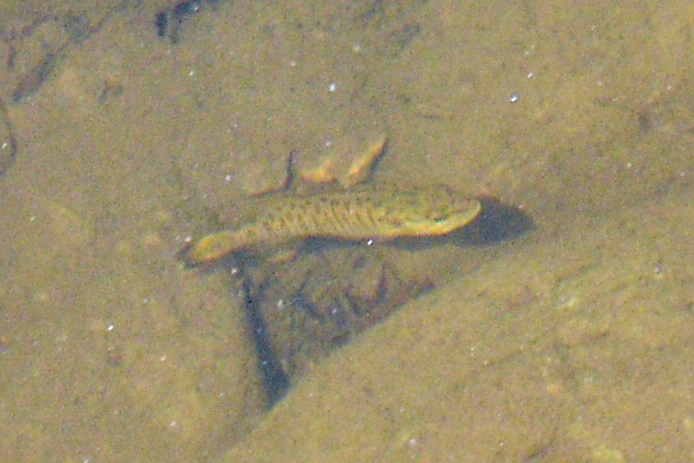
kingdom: Animalia
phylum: Chordata
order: Perciformes
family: Centrarchidae
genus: Micropterus
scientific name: Micropterus dolomieu
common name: Smallmouth bass
